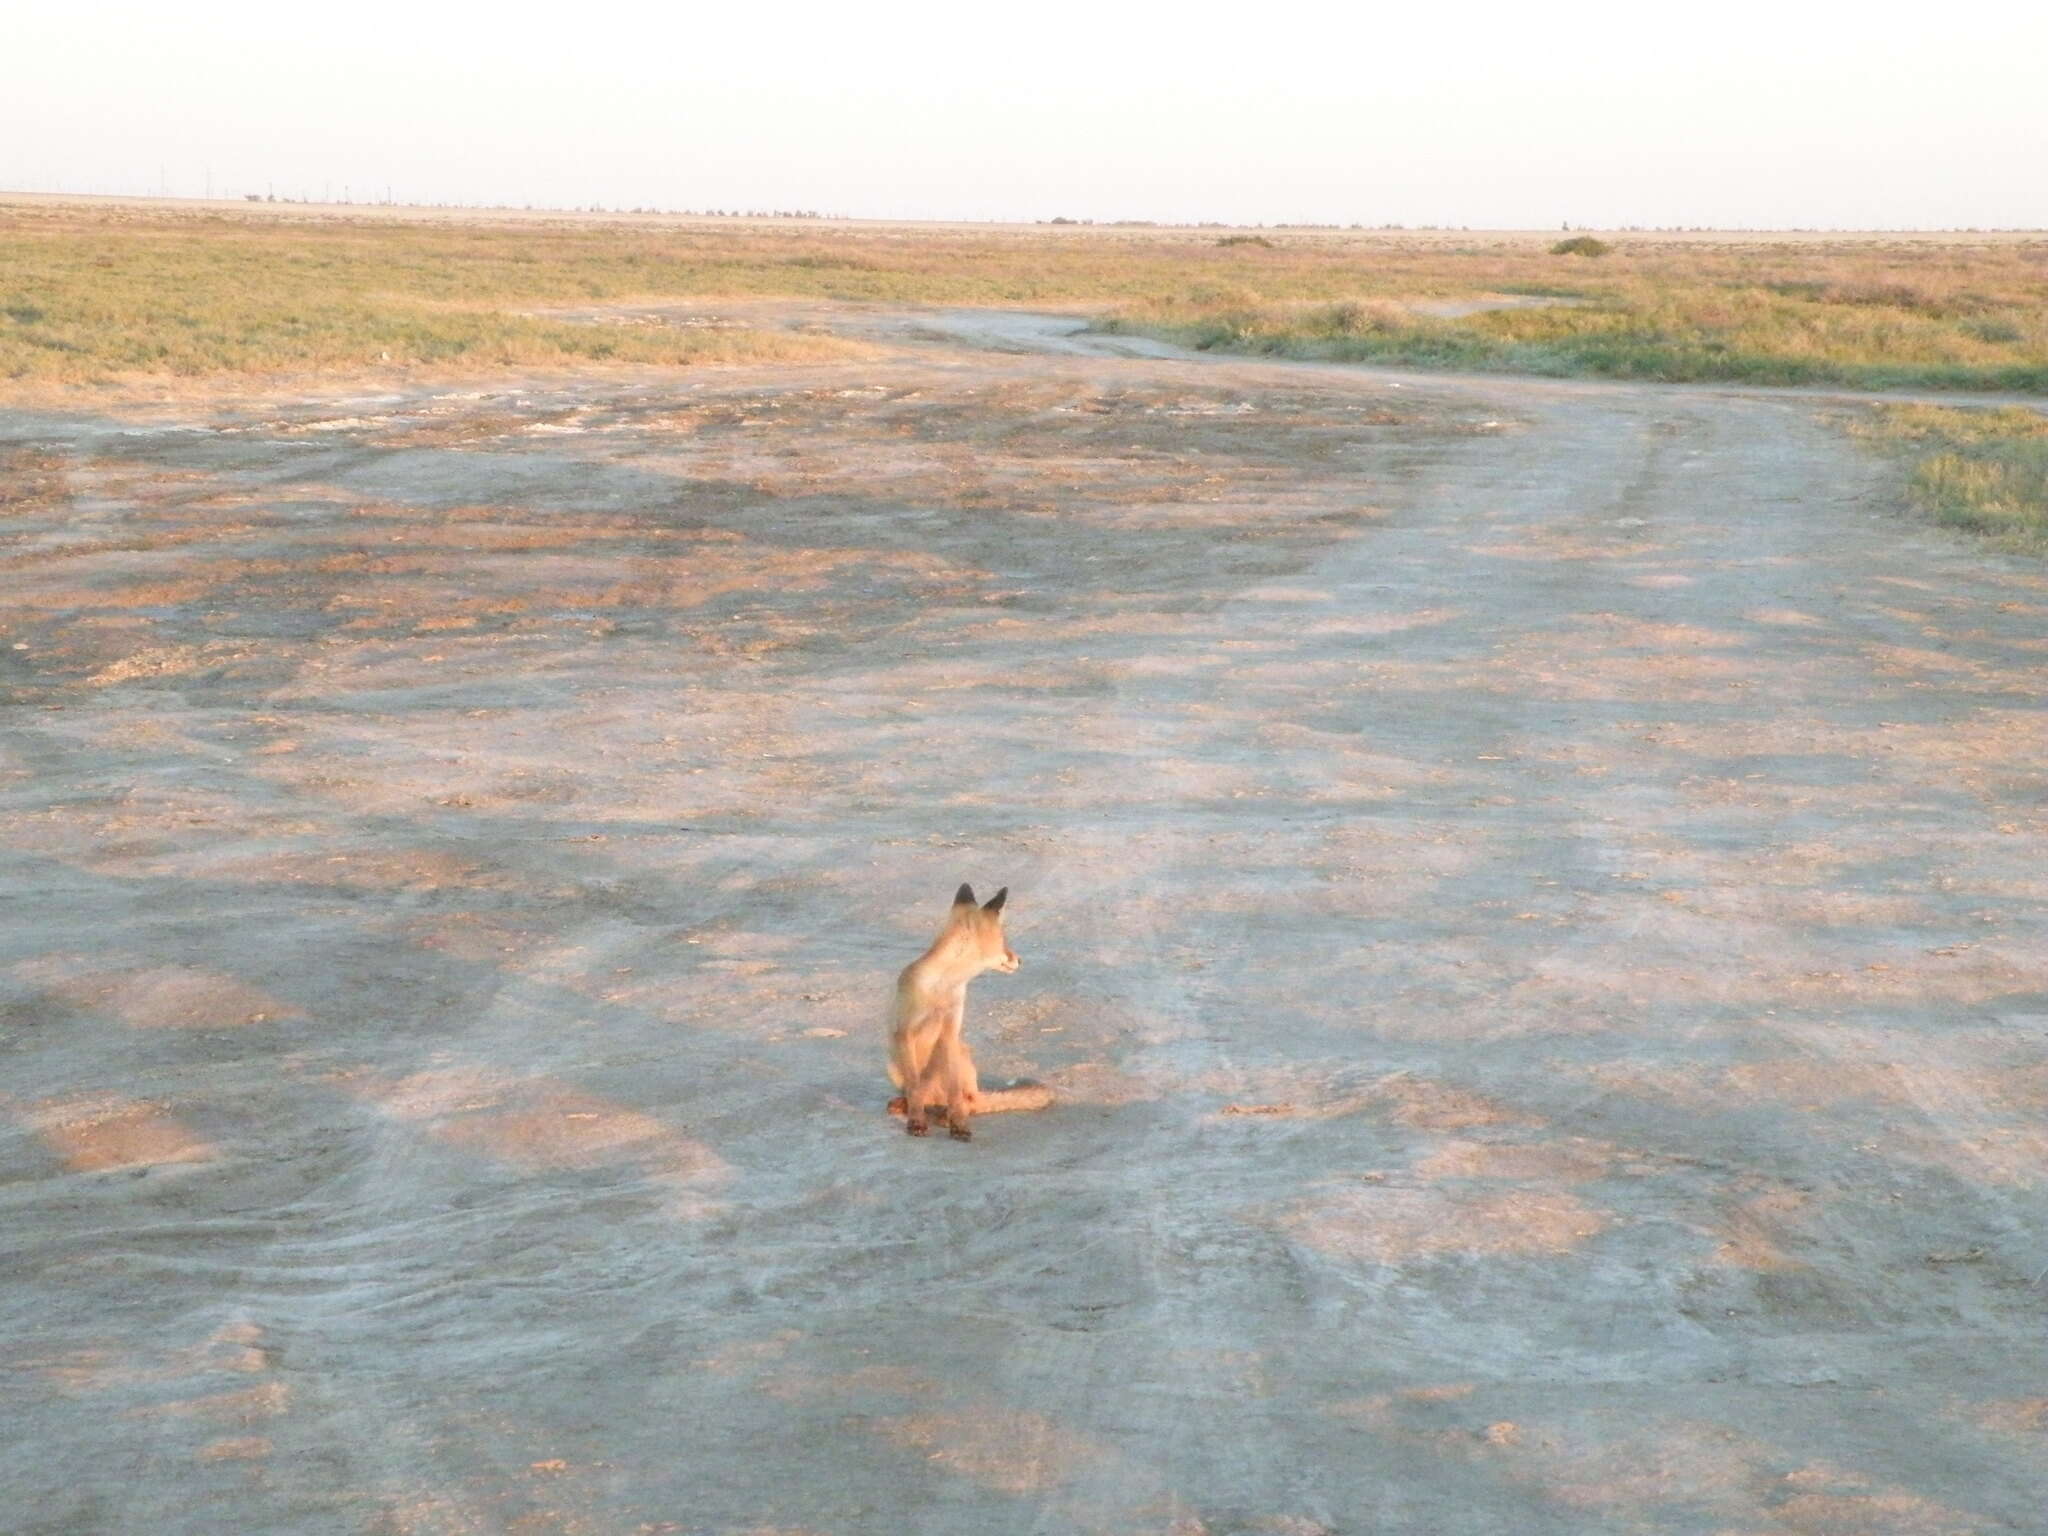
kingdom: Animalia
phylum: Chordata
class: Mammalia
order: Carnivora
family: Canidae
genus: Vulpes
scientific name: Vulpes vulpes
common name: Red fox
